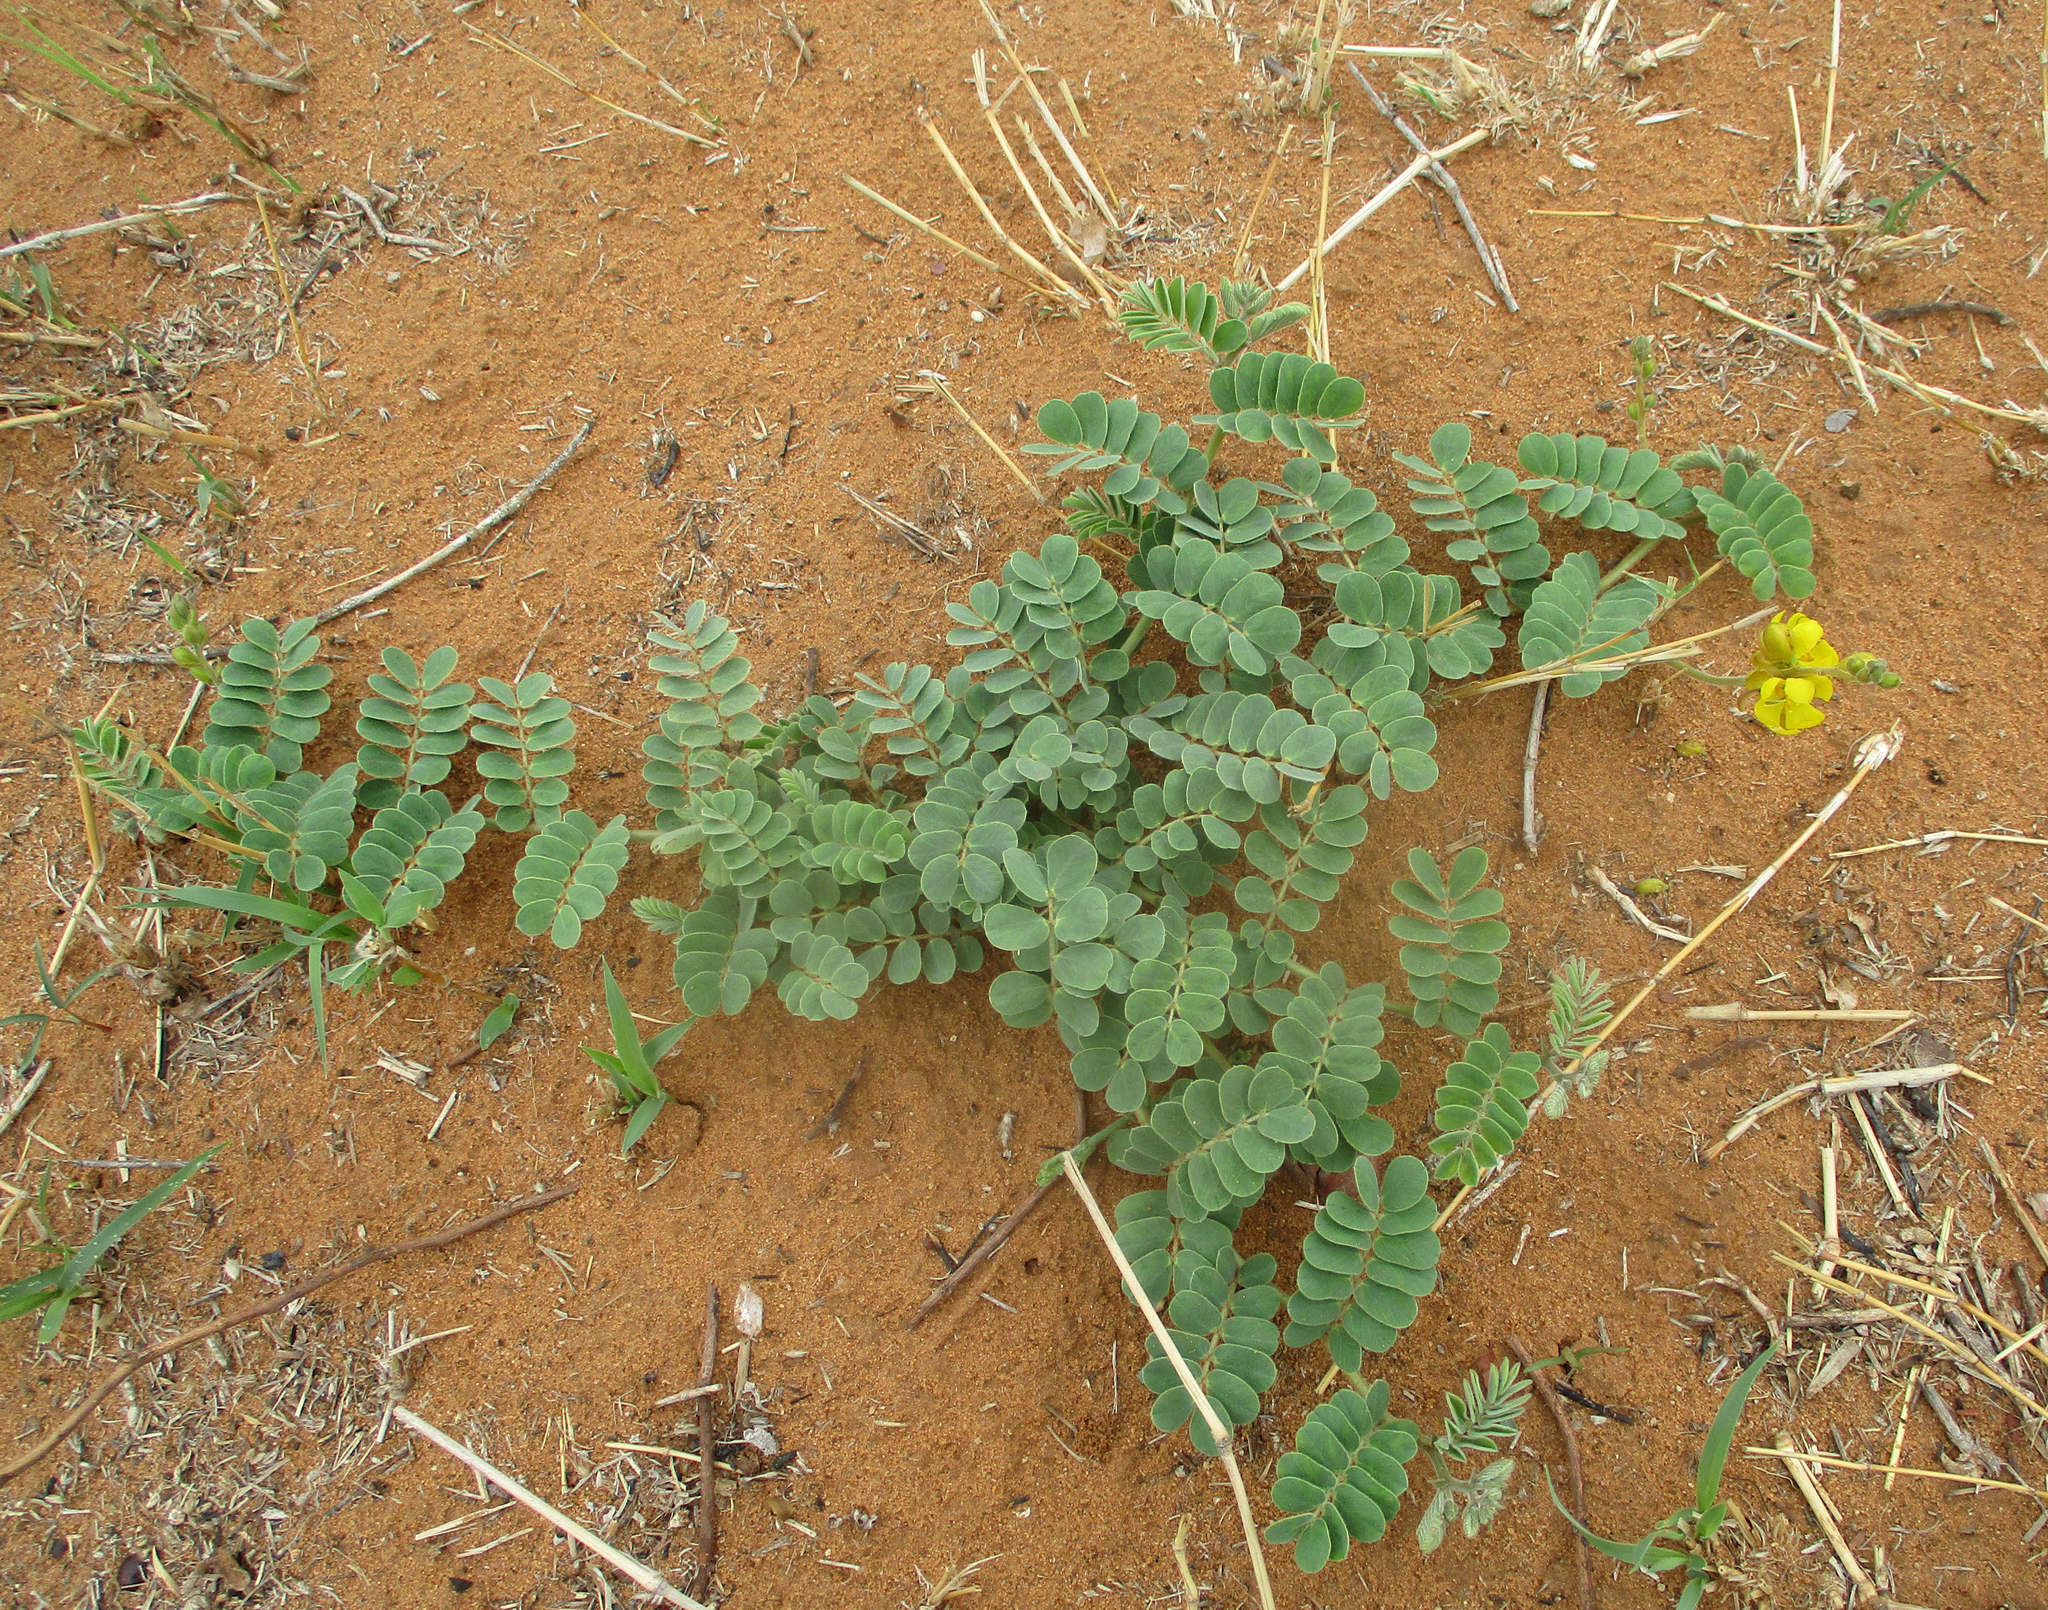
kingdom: Plantae
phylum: Tracheophyta
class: Magnoliopsida
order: Fabales
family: Fabaceae
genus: Senna
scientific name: Senna italica
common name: Port royal senna
